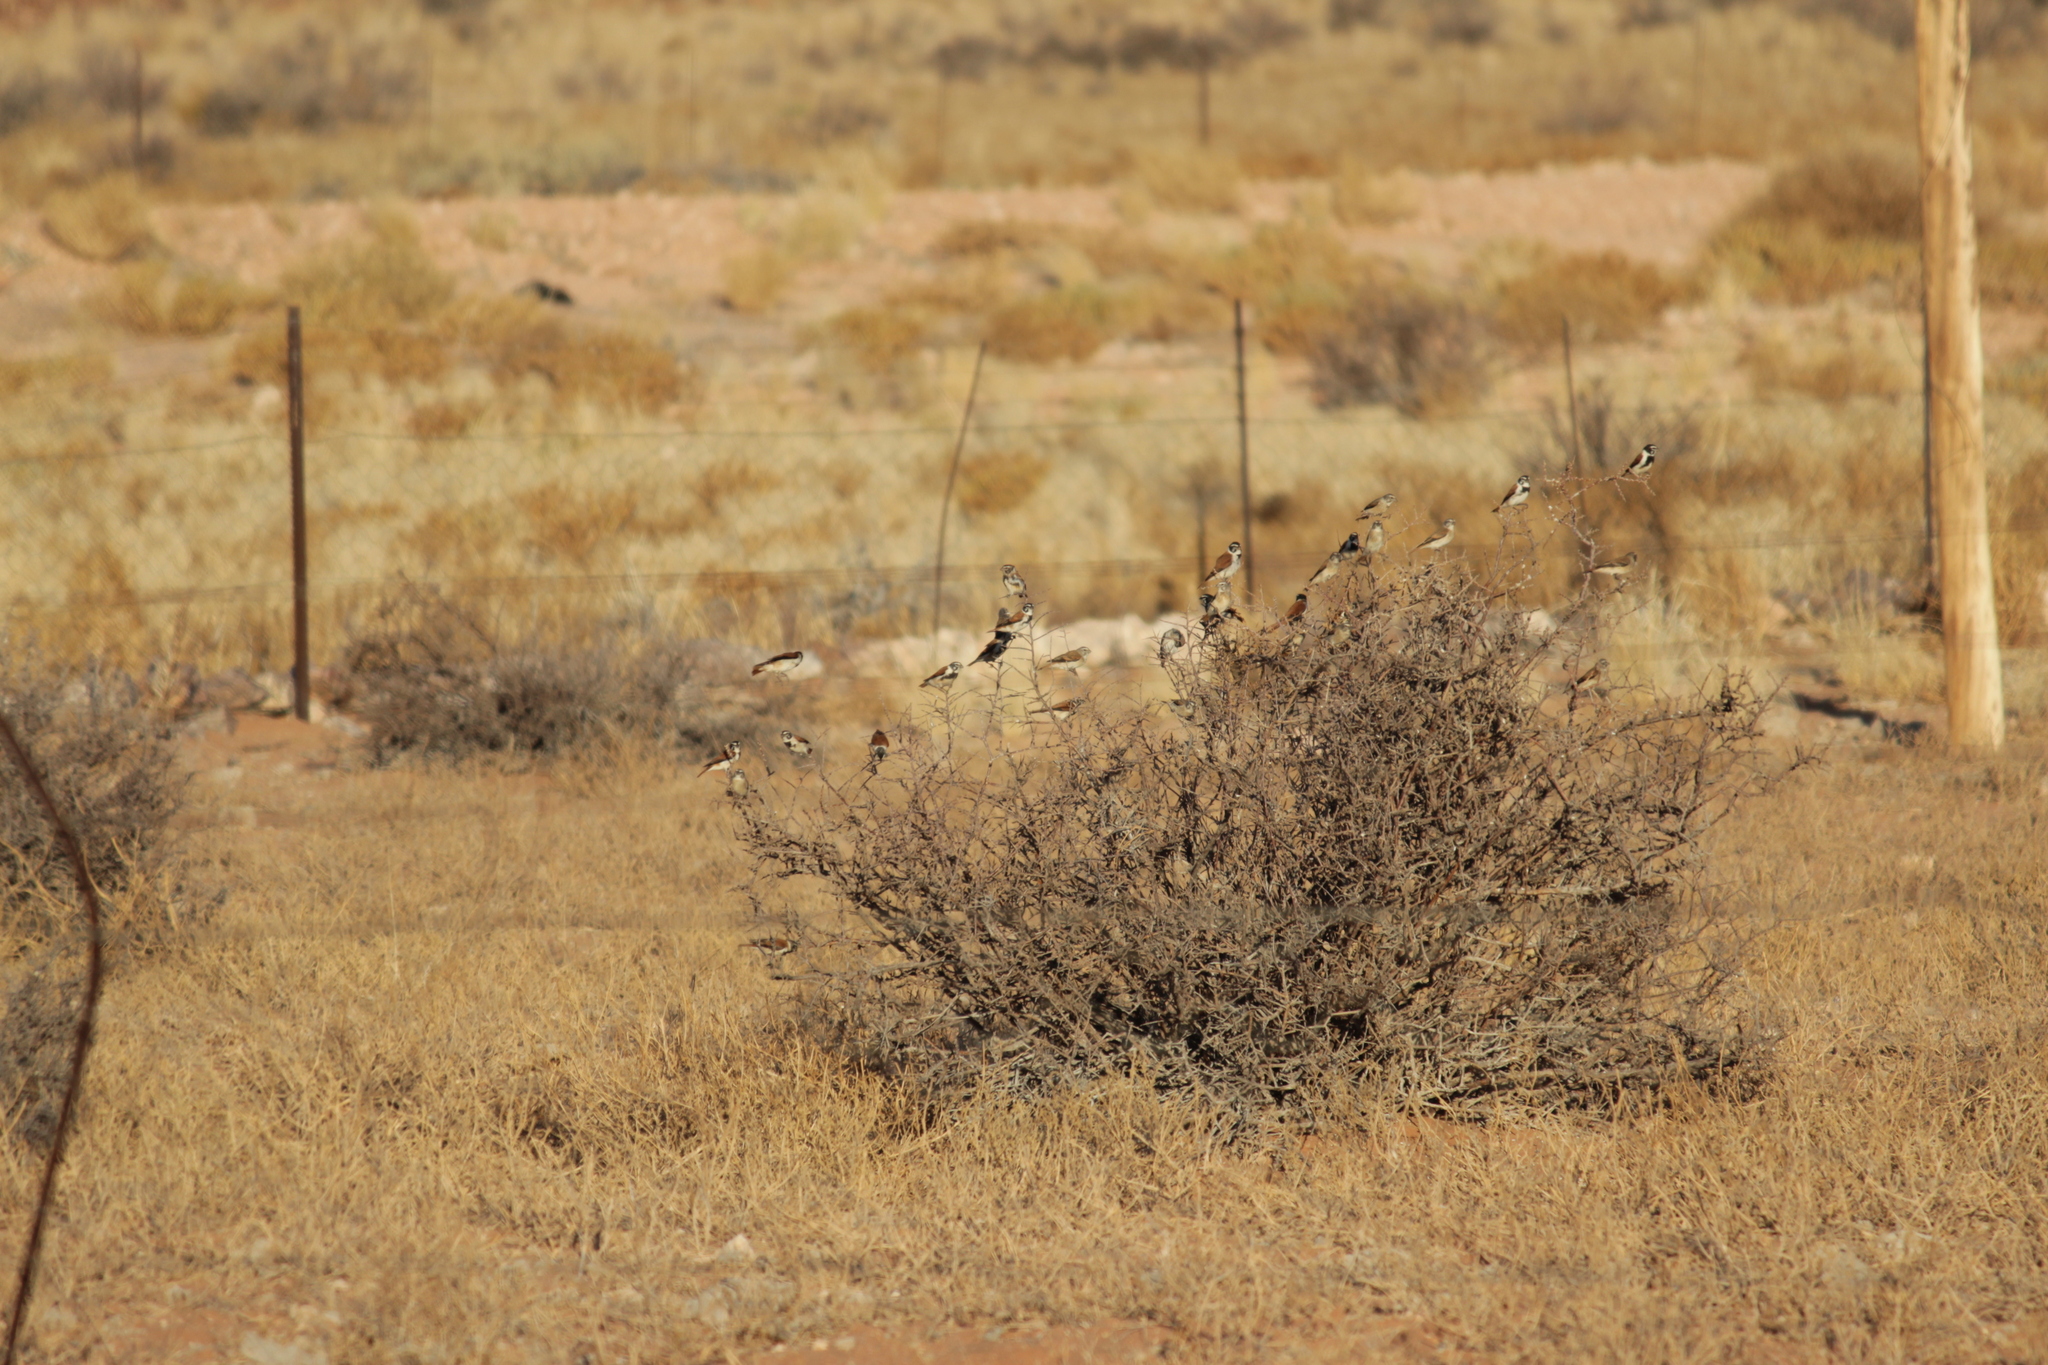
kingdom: Animalia
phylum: Chordata
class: Aves
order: Passeriformes
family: Fringillidae
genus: Serinus
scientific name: Serinus alario
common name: Black-headed canary
